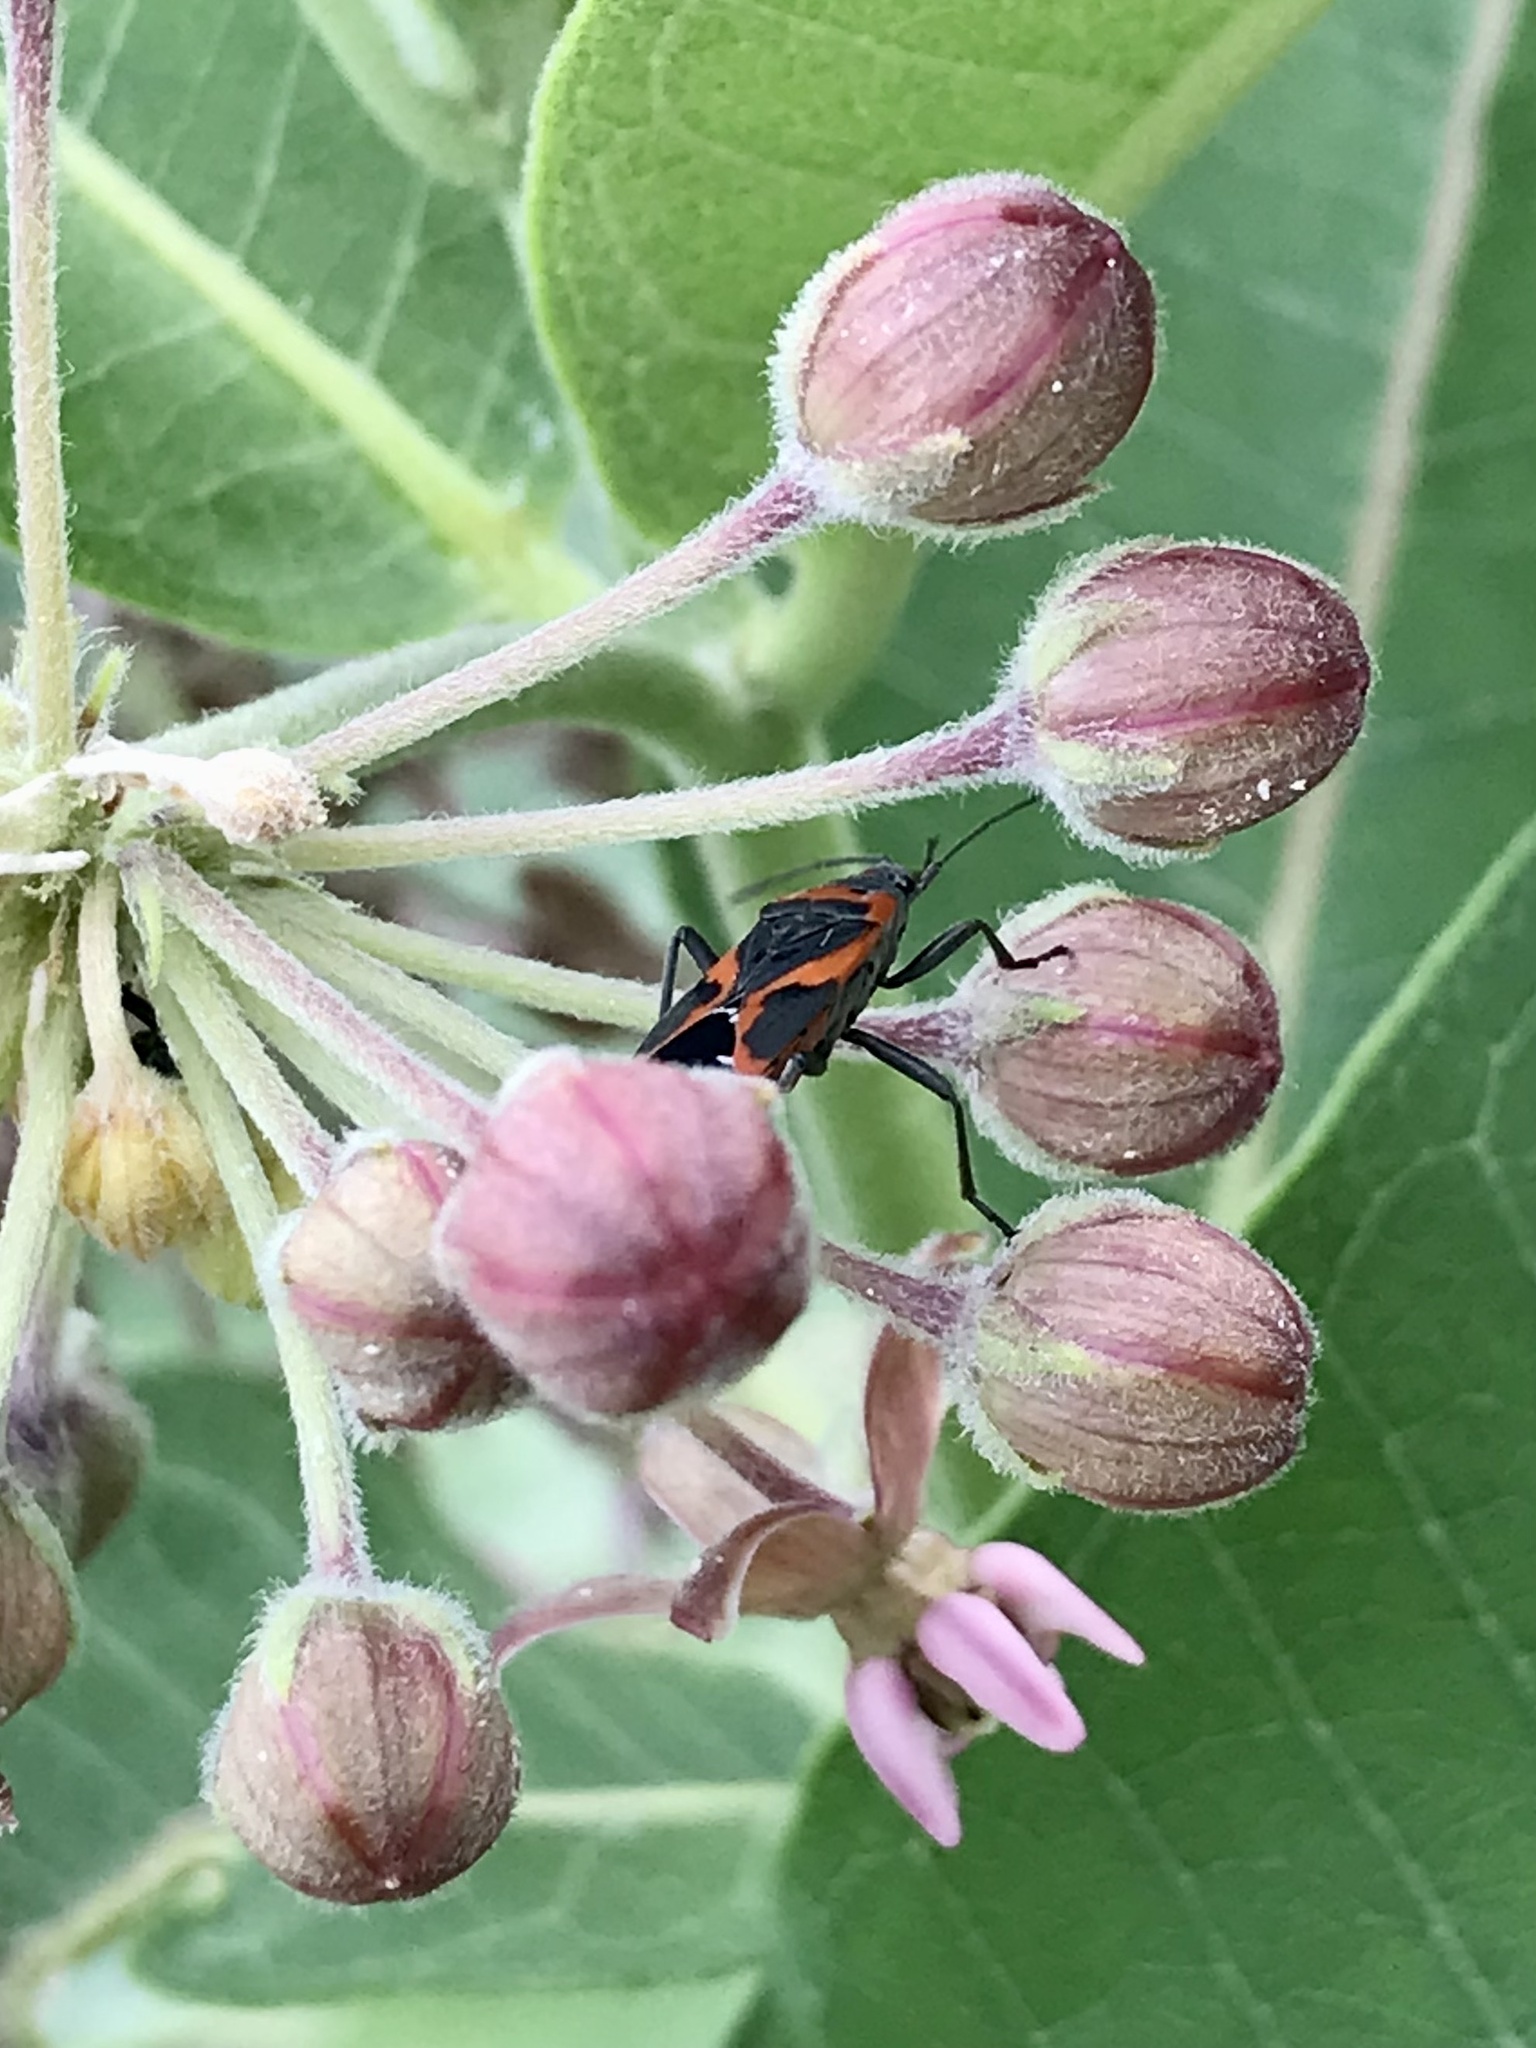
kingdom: Animalia
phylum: Arthropoda
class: Insecta
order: Hemiptera
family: Lygaeidae
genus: Lygaeus
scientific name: Lygaeus kalmii
